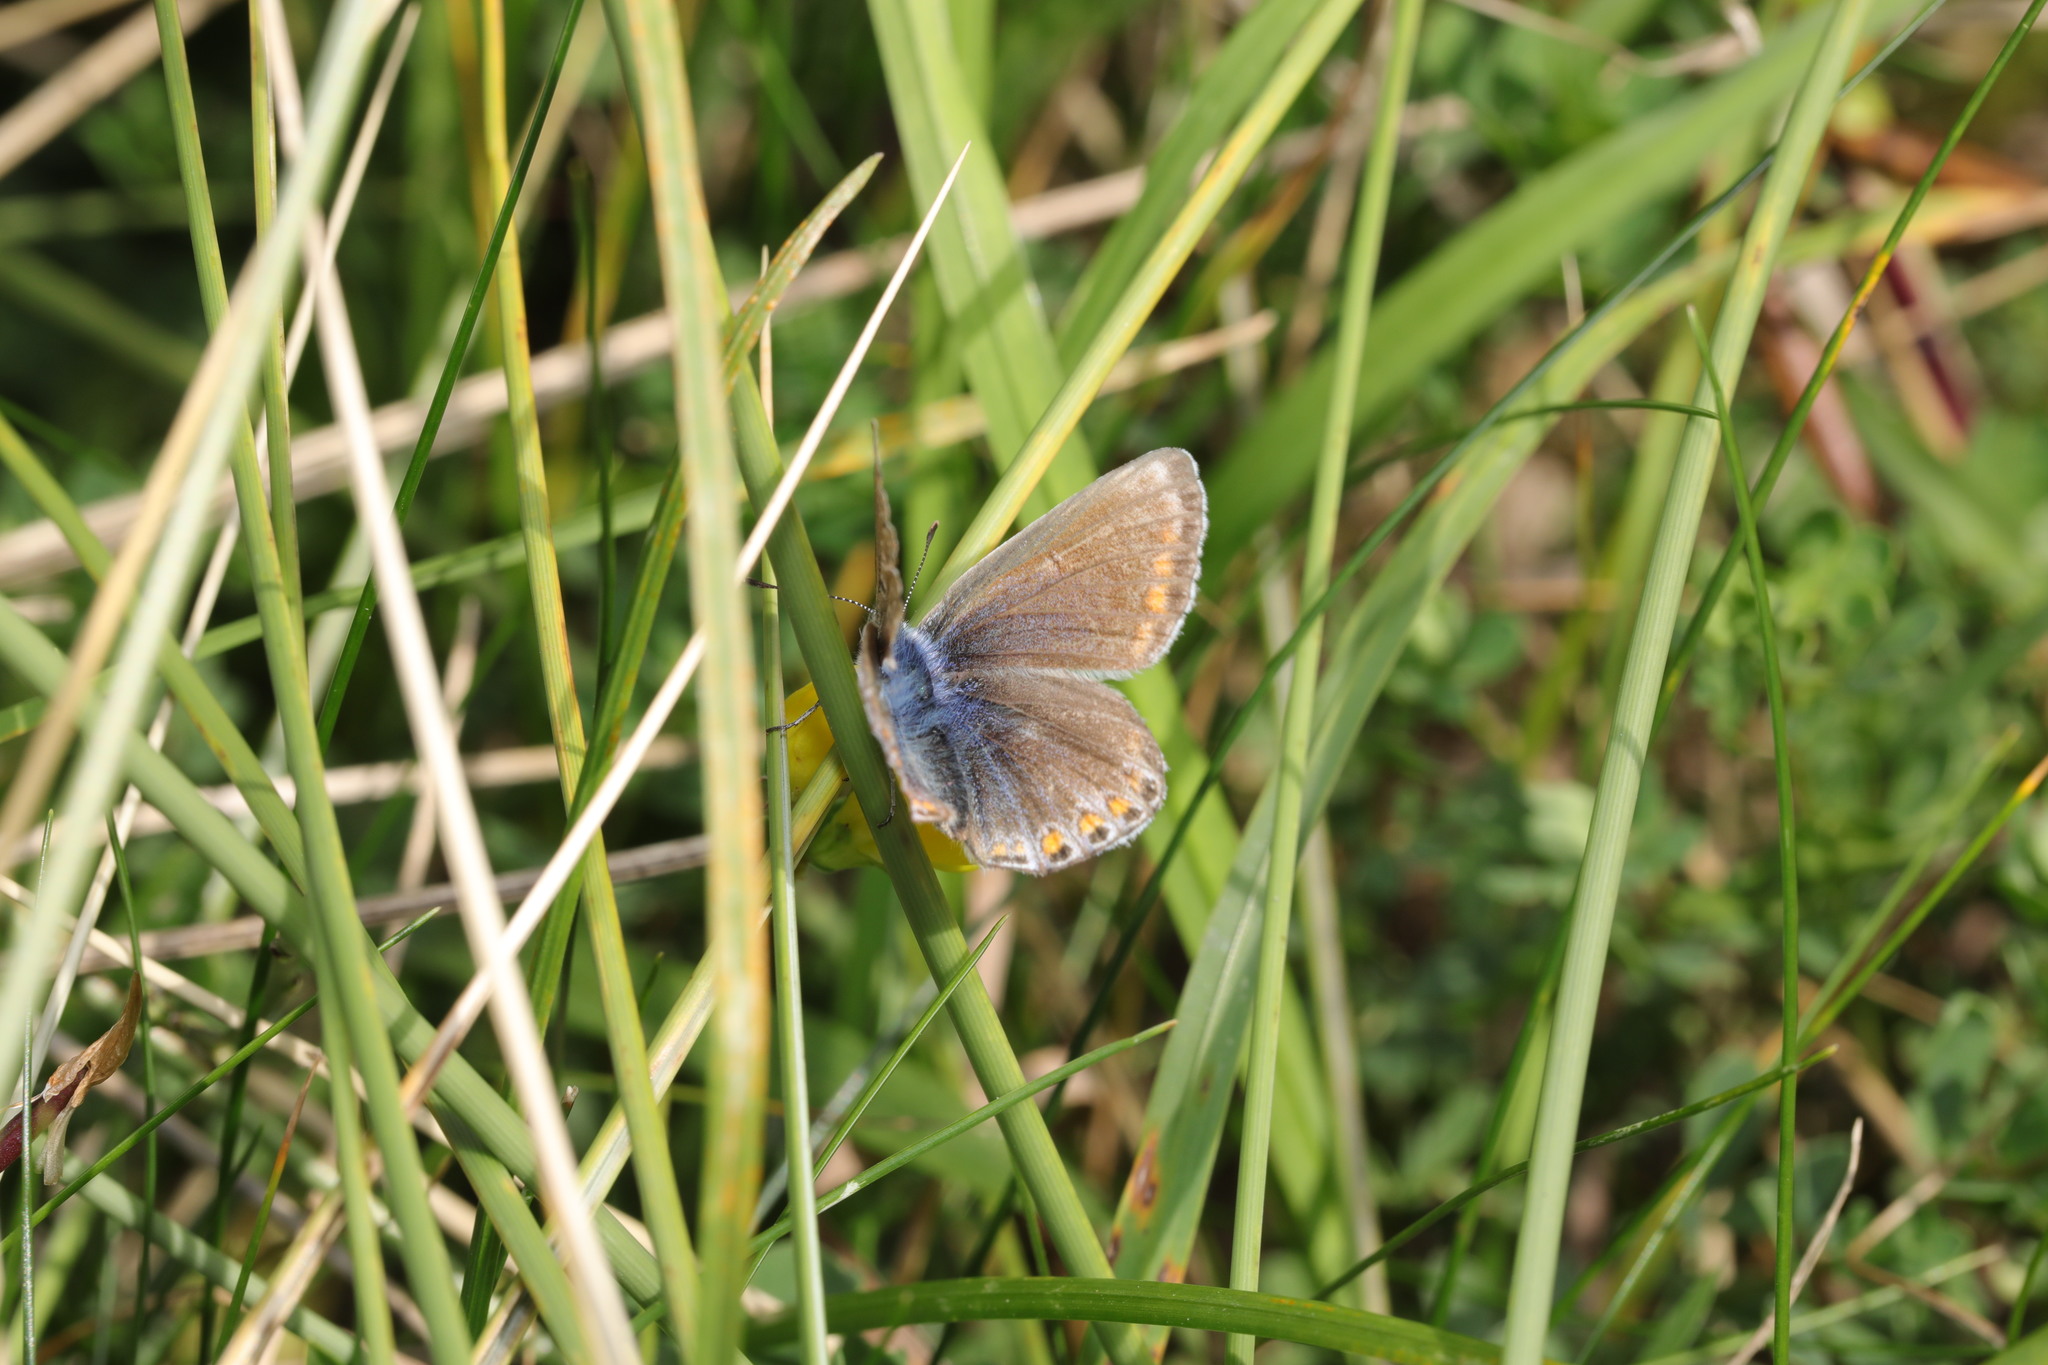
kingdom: Animalia
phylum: Arthropoda
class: Insecta
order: Lepidoptera
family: Lycaenidae
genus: Polyommatus
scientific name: Polyommatus icarus
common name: Common blue
